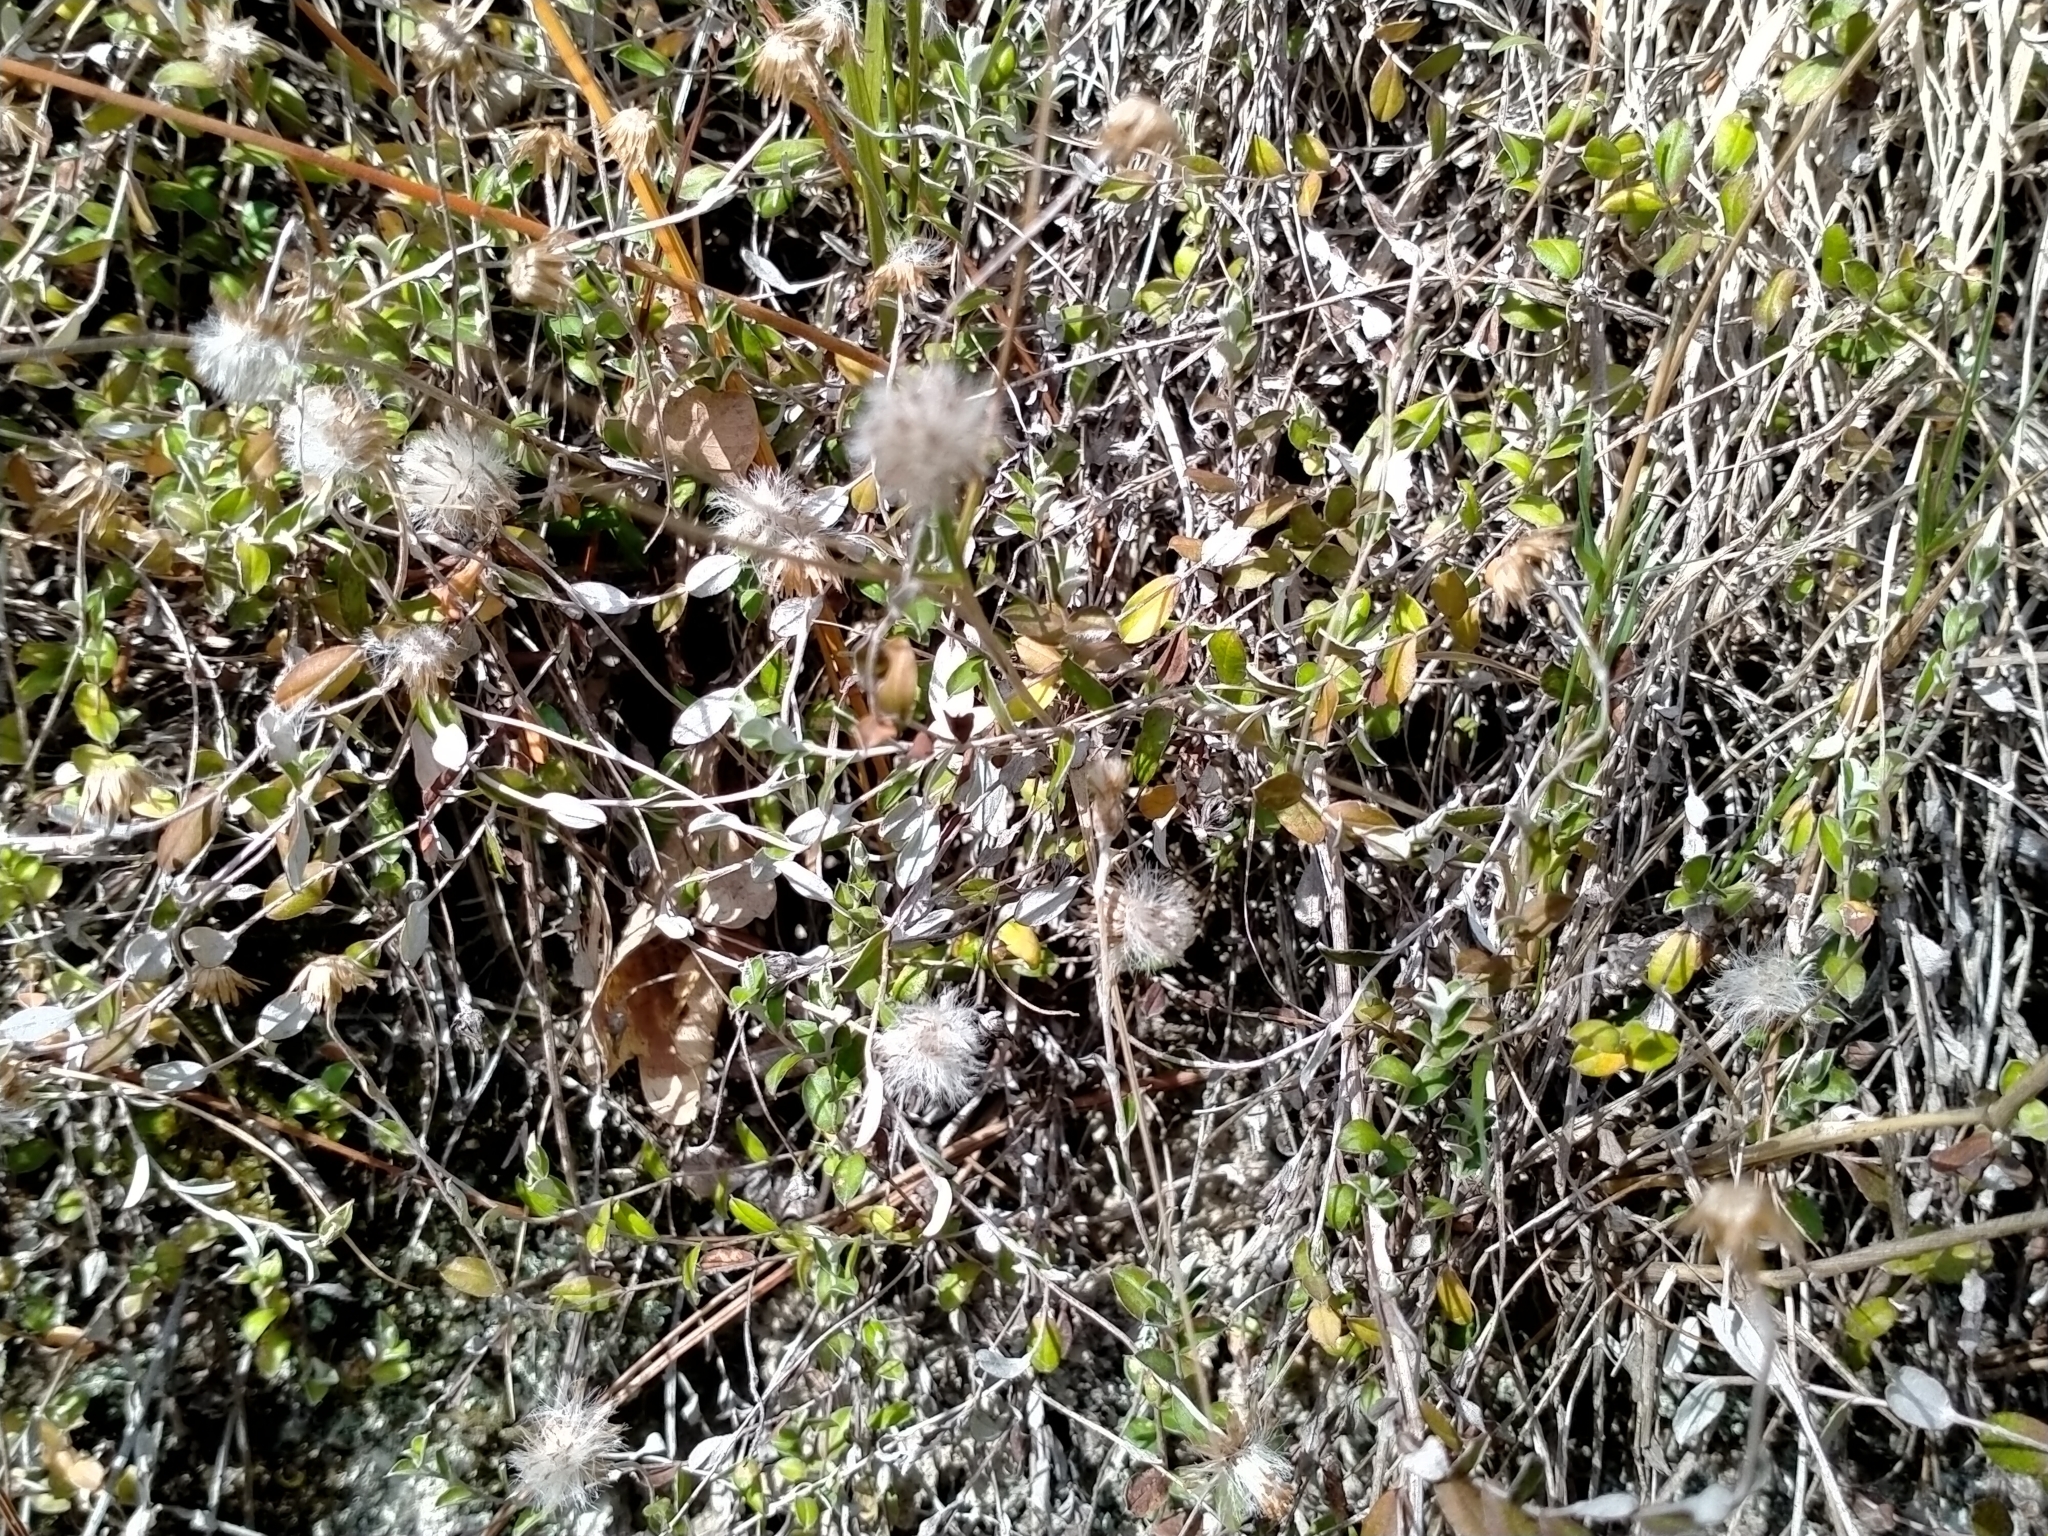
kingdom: Plantae
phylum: Tracheophyta
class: Magnoliopsida
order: Asterales
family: Asteraceae
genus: Helichrysum
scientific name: Helichrysum filicaule
